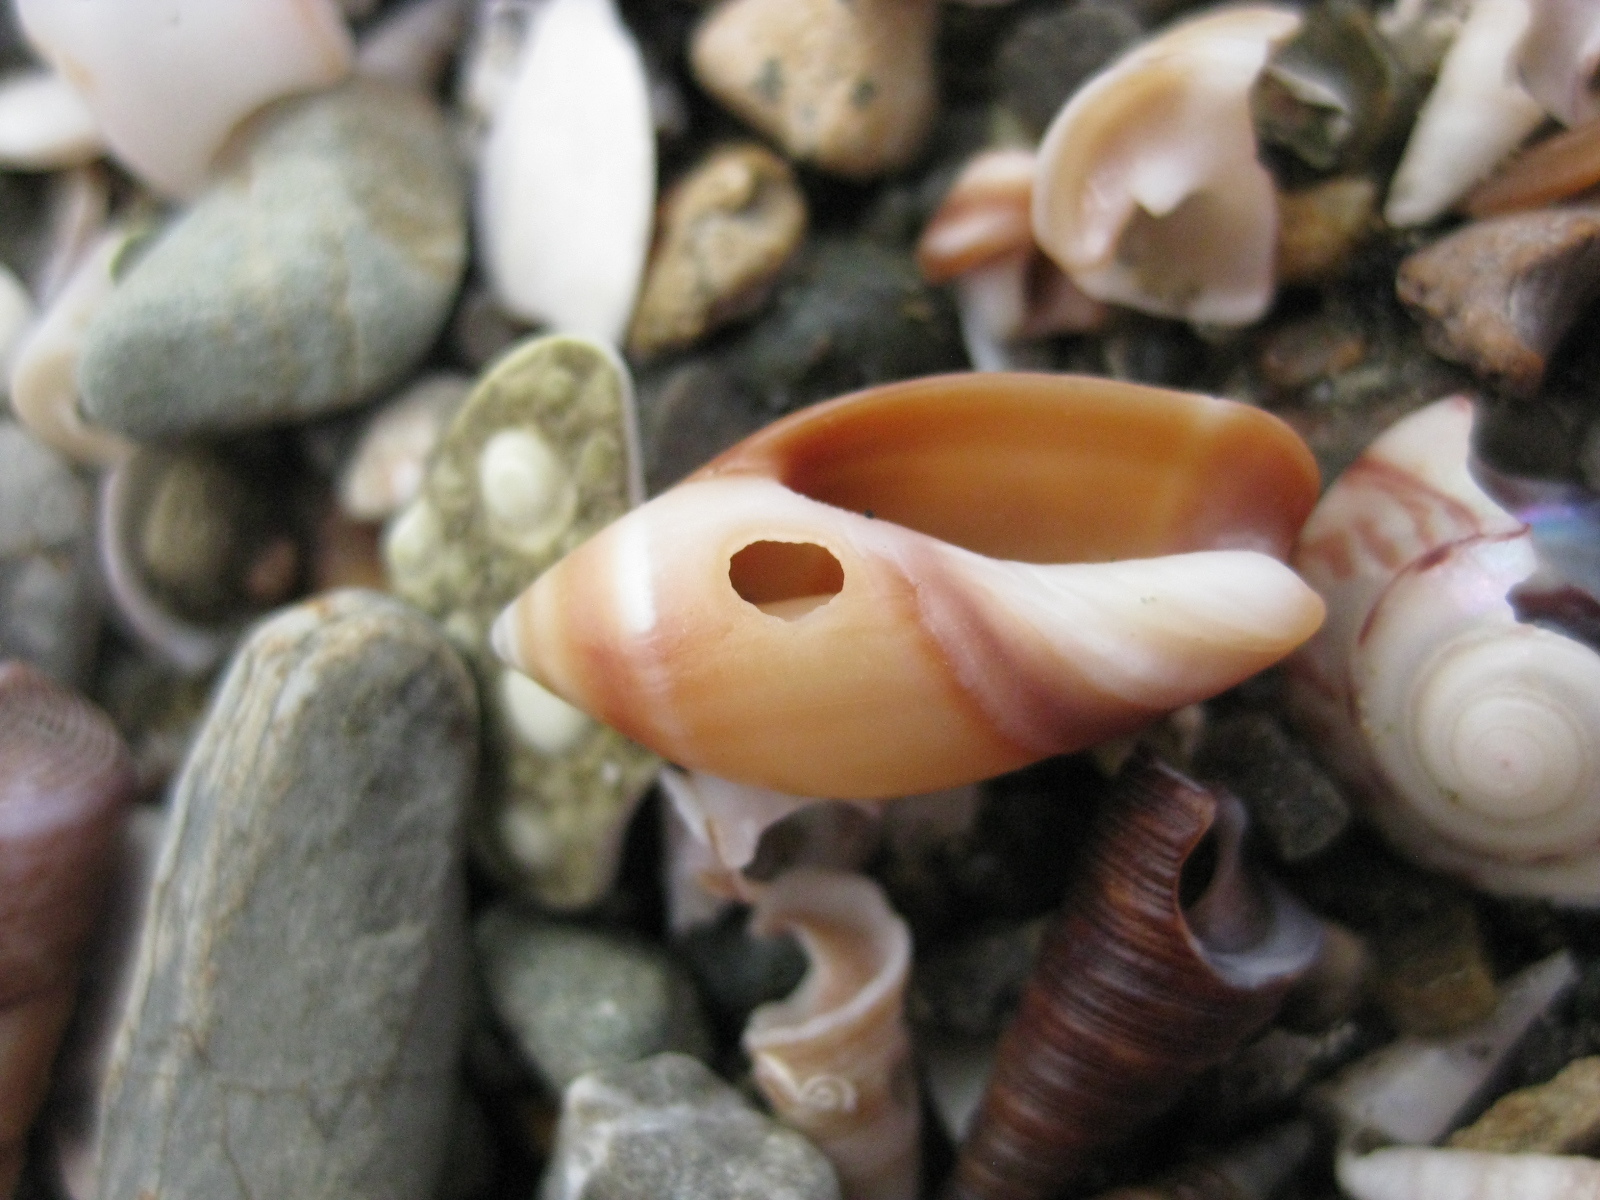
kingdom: Animalia
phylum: Mollusca
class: Gastropoda
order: Neogastropoda
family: Ancillariidae
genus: Amalda
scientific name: Amalda australis
